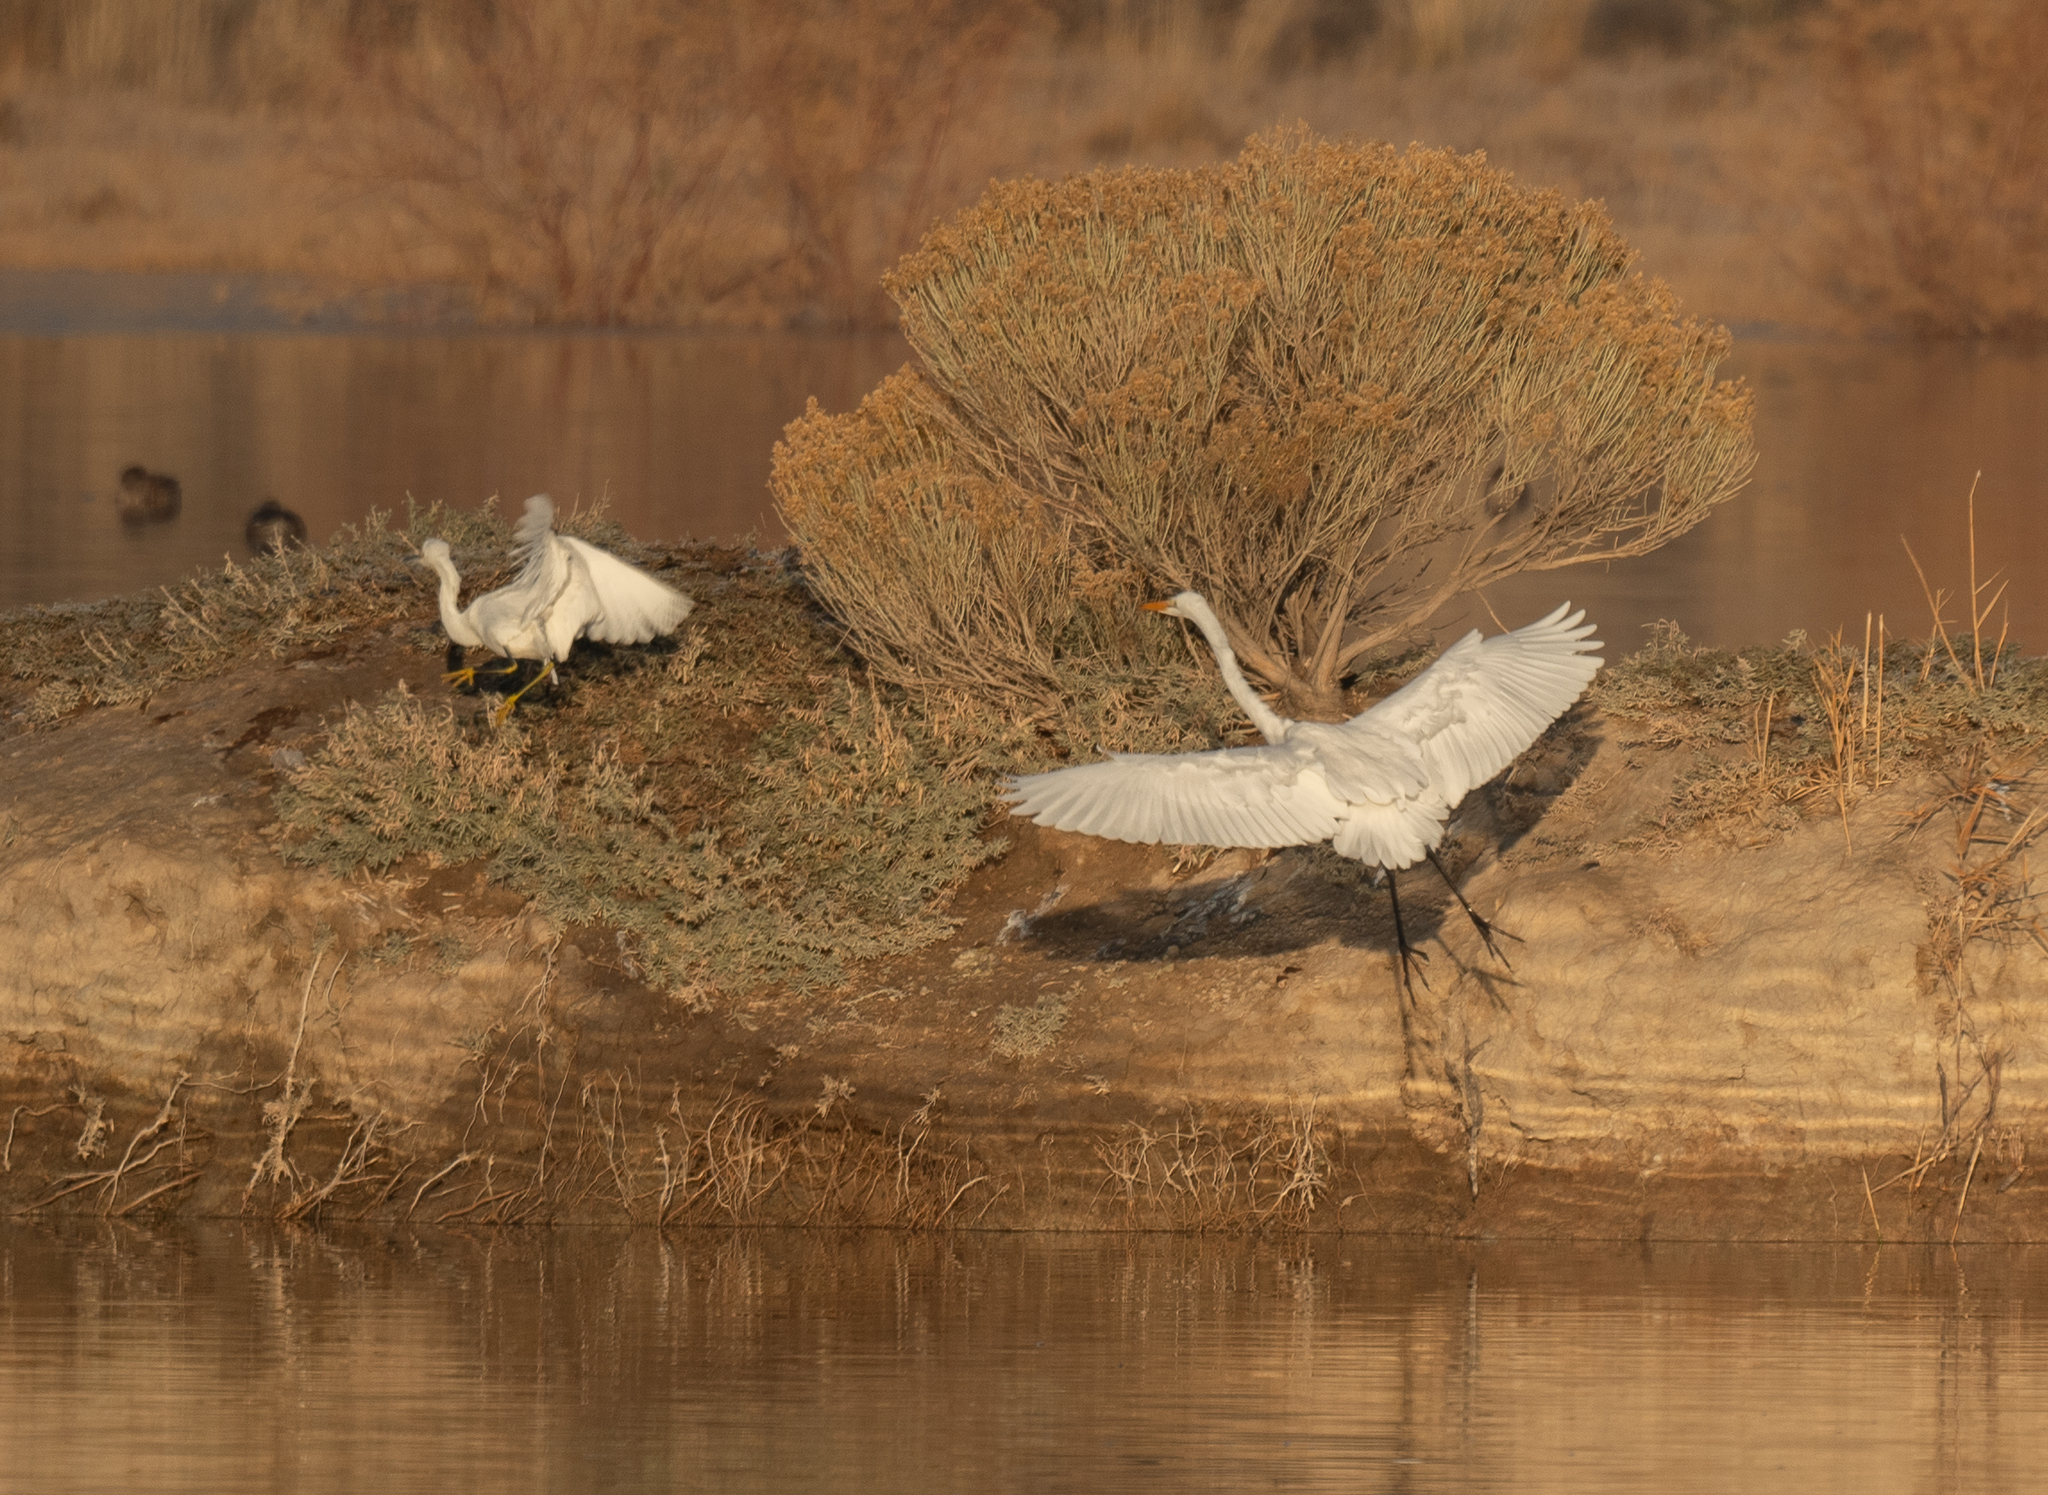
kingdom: Animalia
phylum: Chordata
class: Aves
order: Pelecaniformes
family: Ardeidae
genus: Ardea
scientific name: Ardea alba
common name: Great egret
